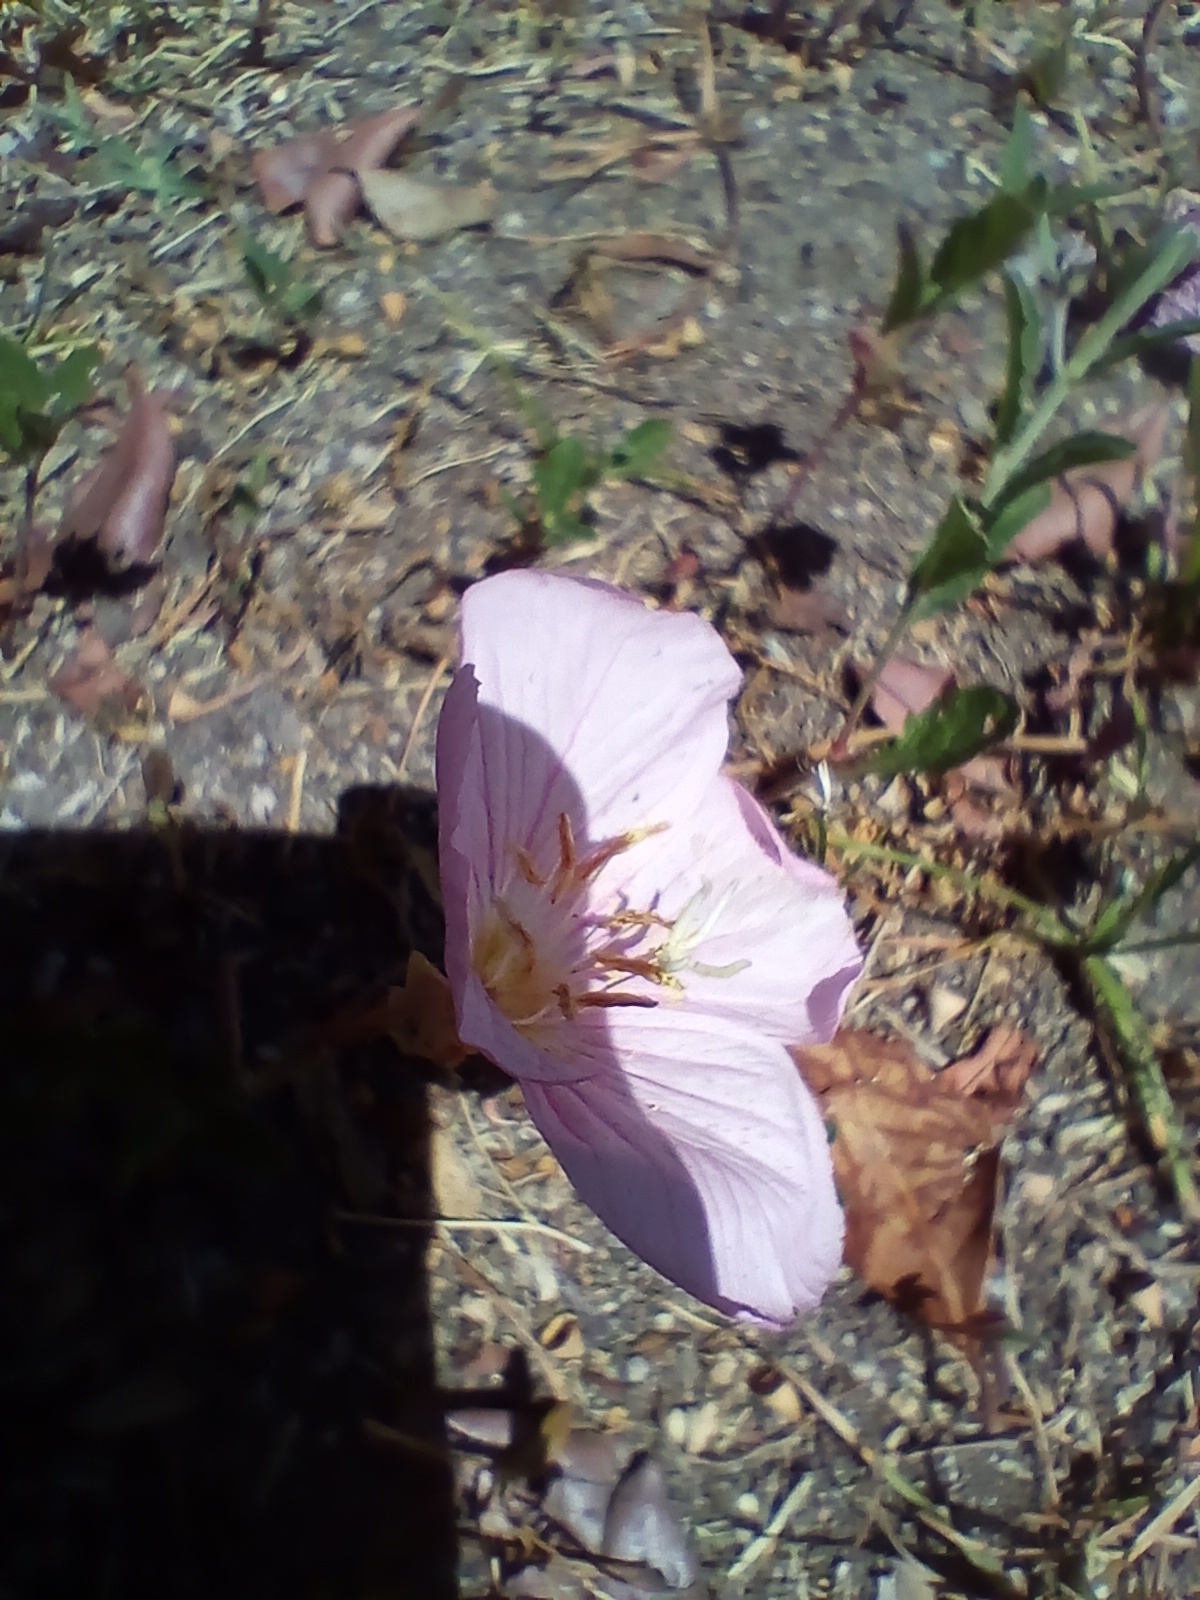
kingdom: Plantae
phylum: Tracheophyta
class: Magnoliopsida
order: Myrtales
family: Onagraceae
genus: Oenothera
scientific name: Oenothera speciosa
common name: White evening-primrose
